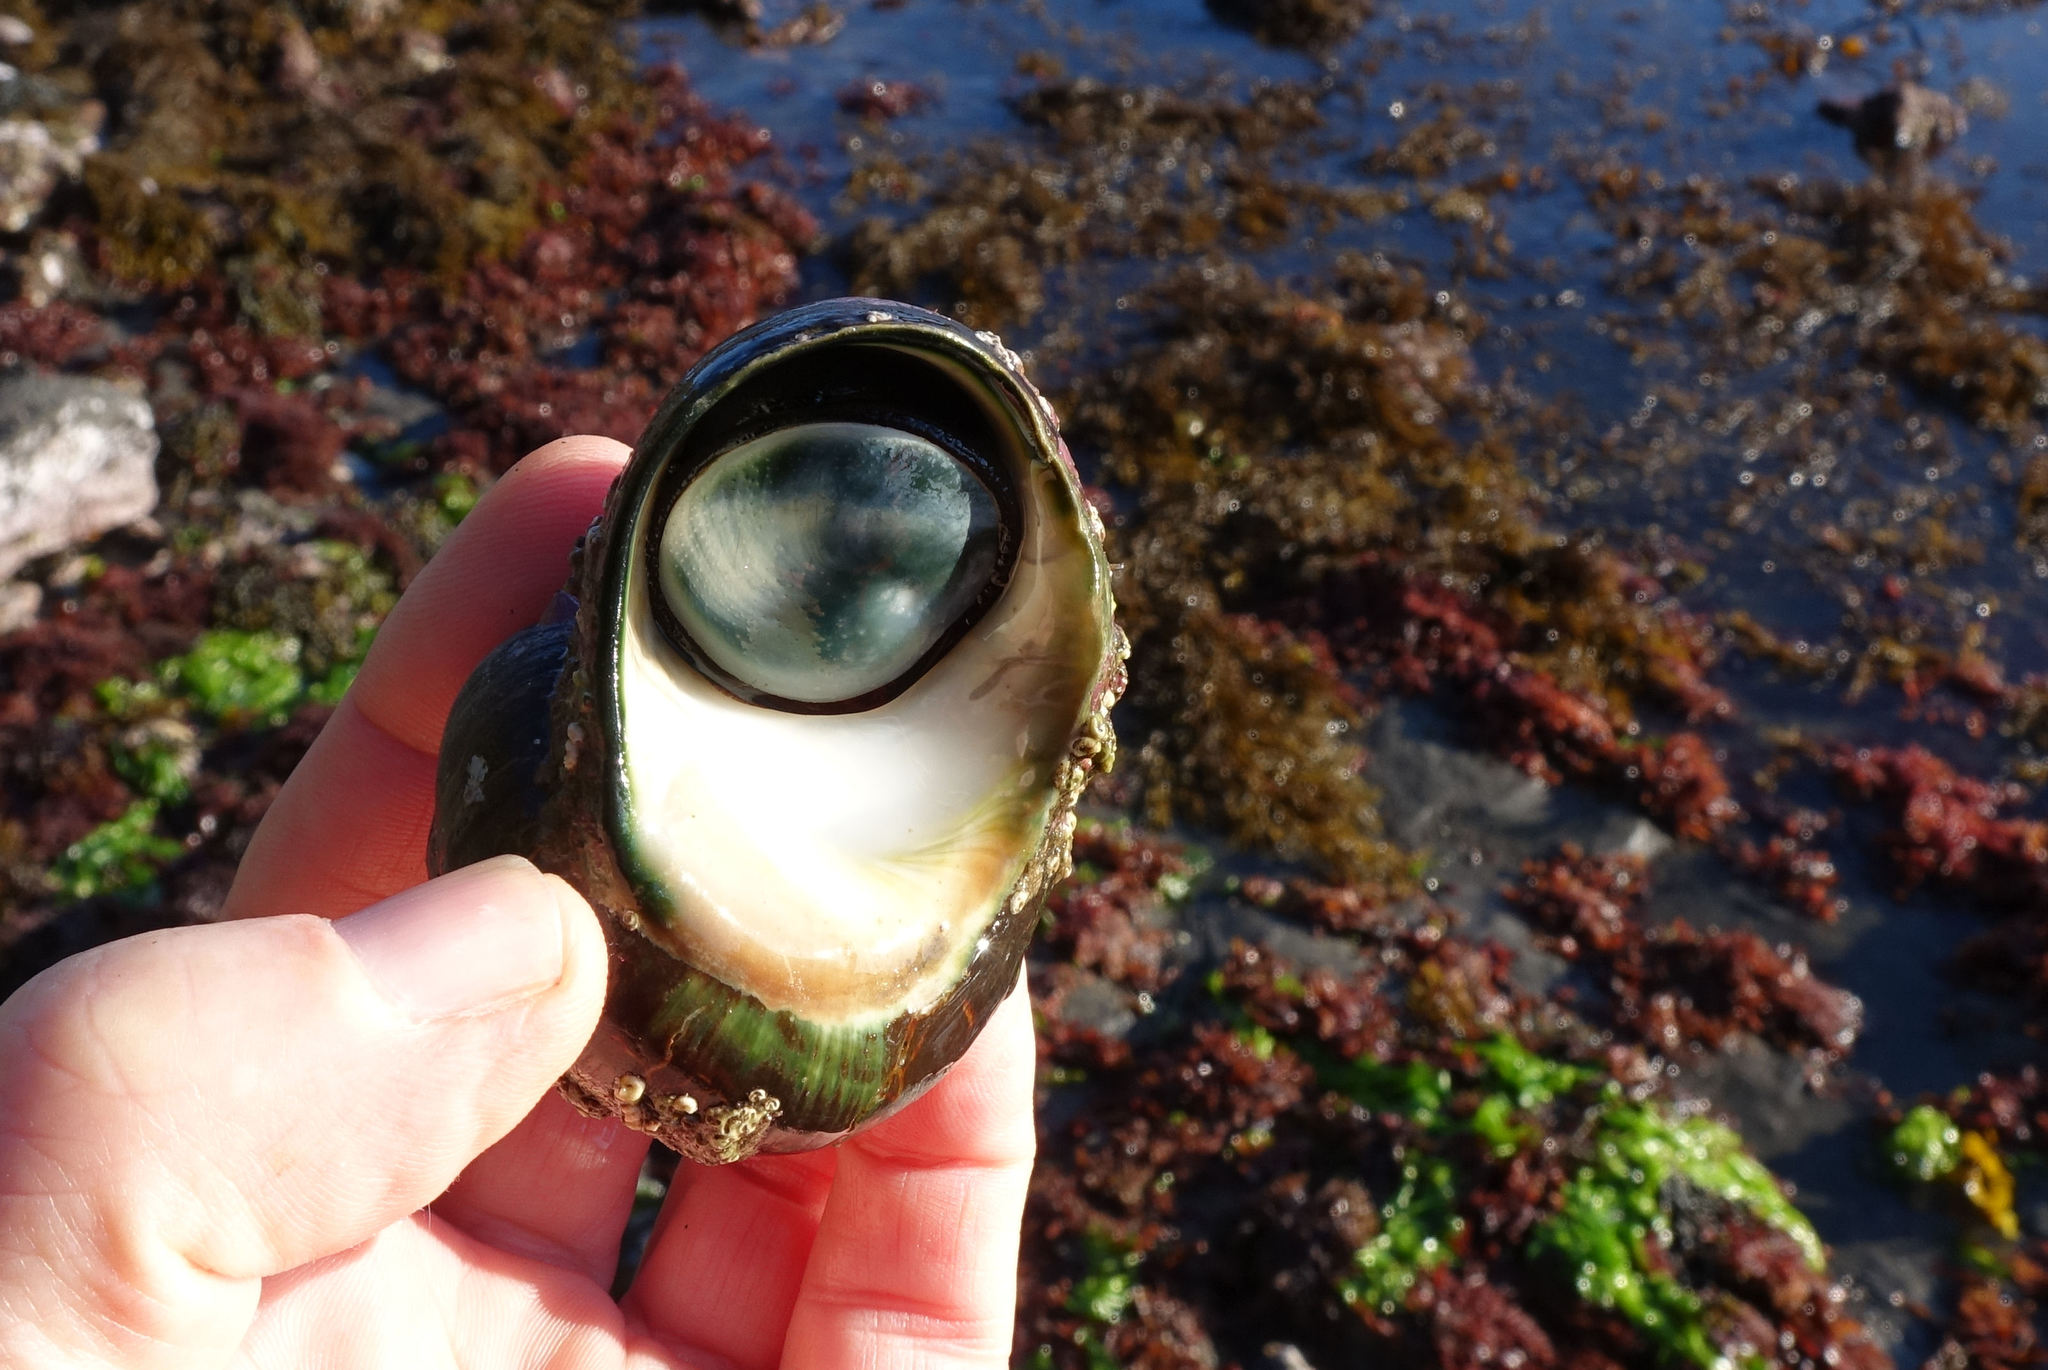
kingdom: Animalia
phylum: Mollusca
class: Gastropoda
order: Trochida
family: Turbinidae
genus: Lunella
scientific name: Lunella smaragda
